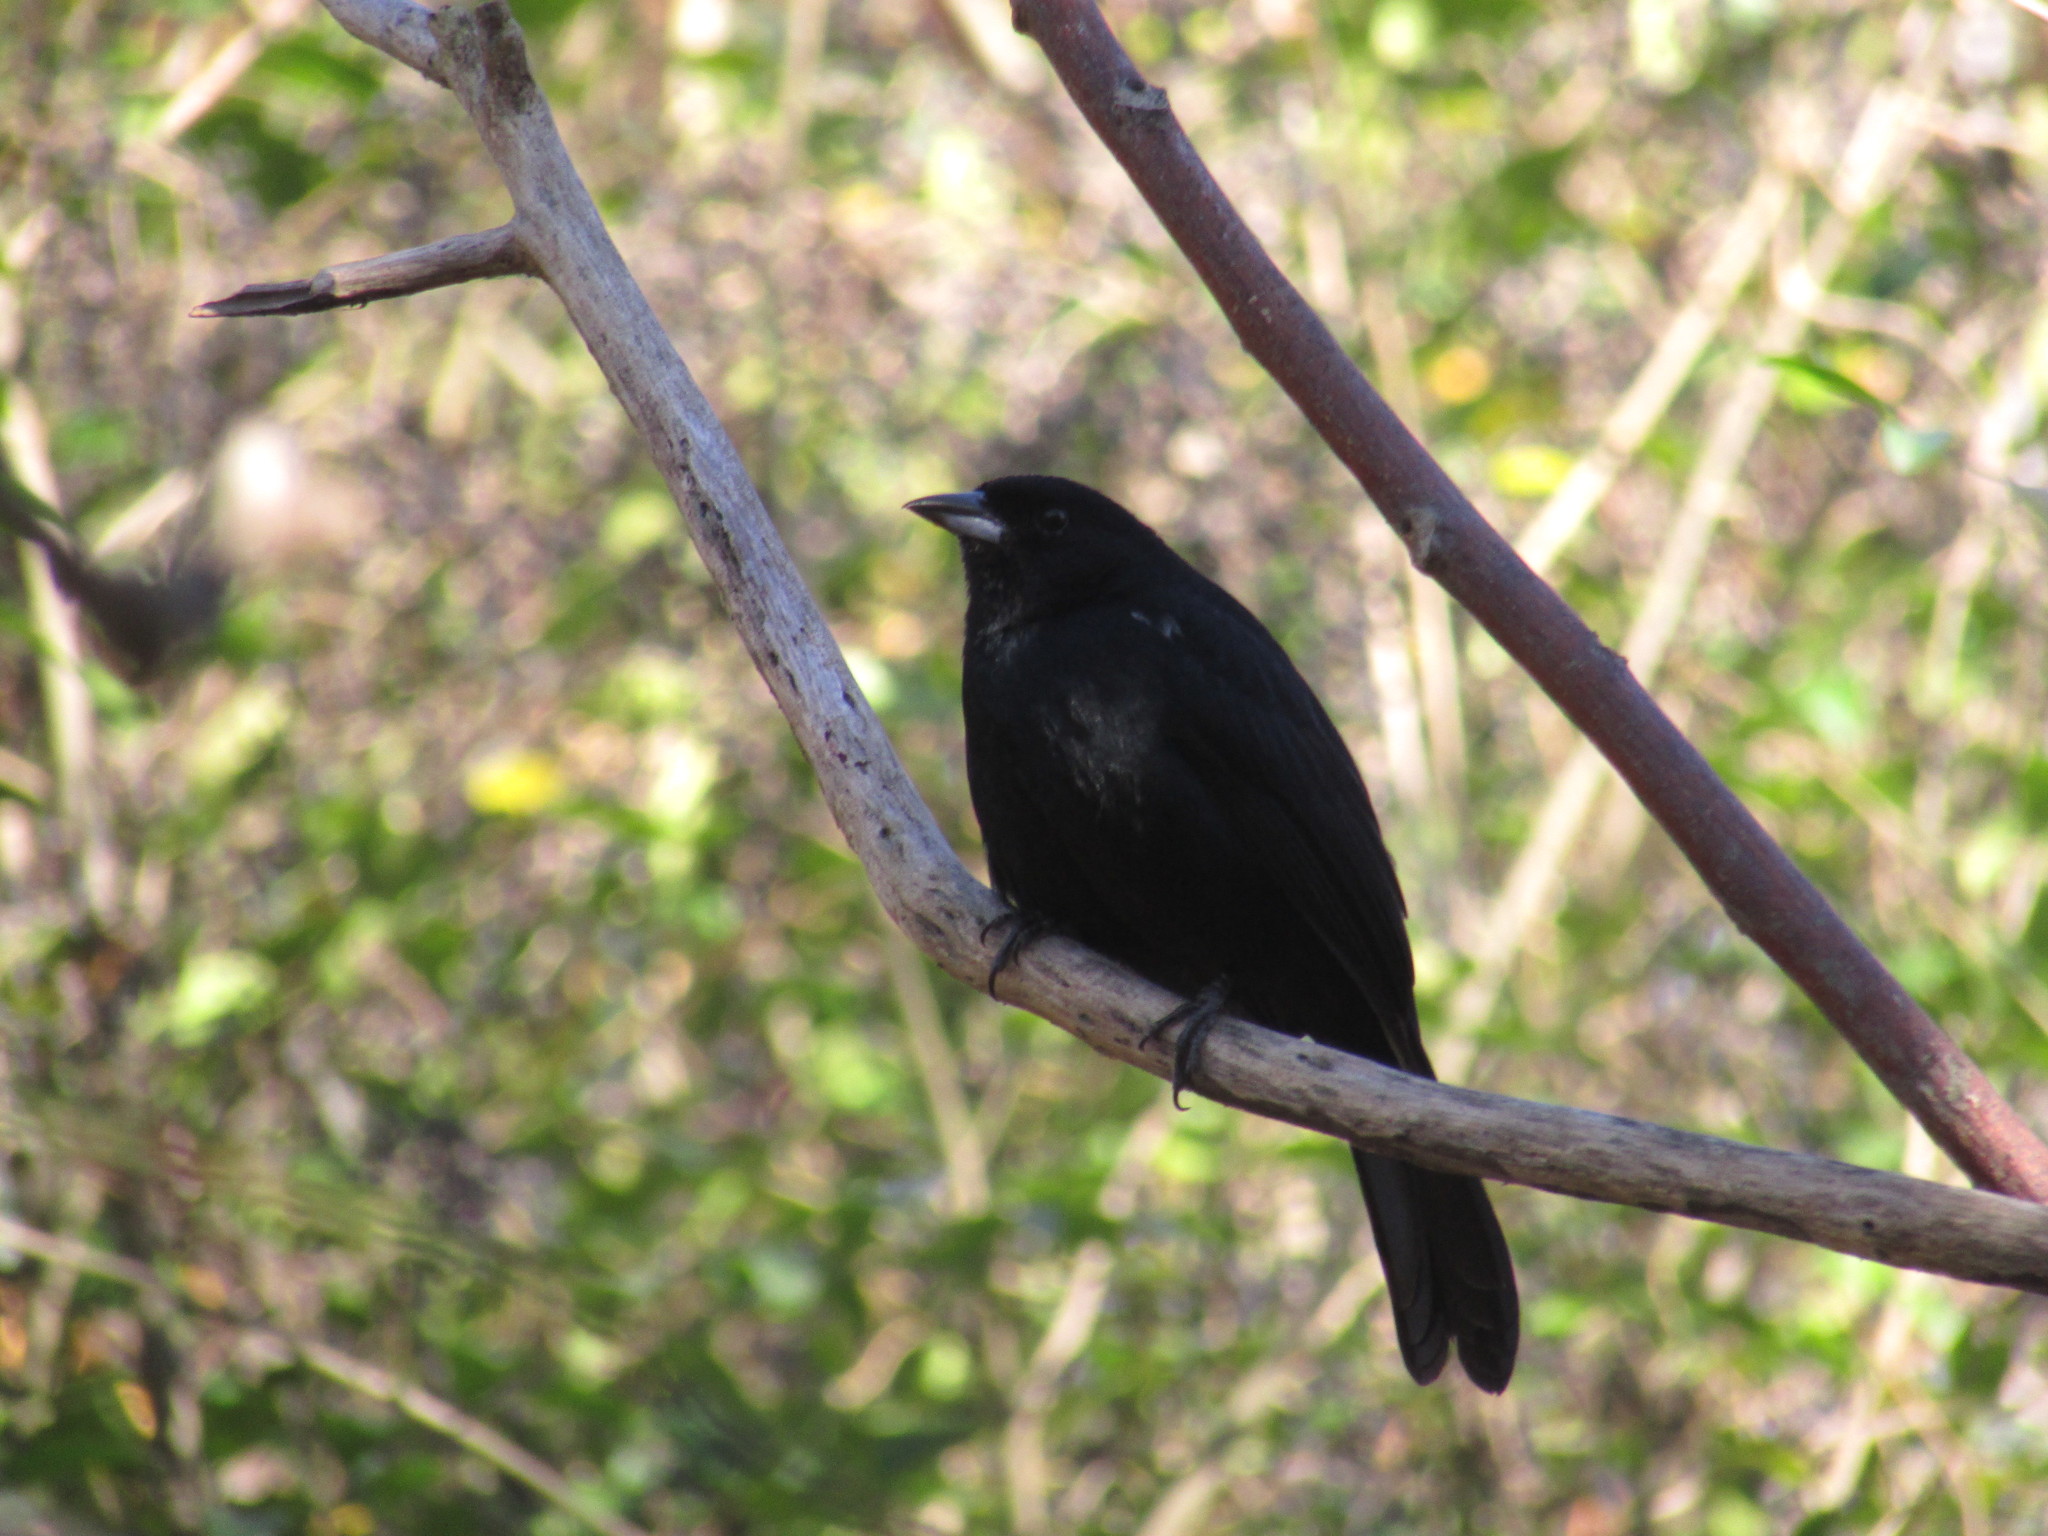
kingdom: Animalia
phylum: Chordata
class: Aves
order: Passeriformes
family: Thraupidae
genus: Tachyphonus
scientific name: Tachyphonus rufus
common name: White-lined tanager
